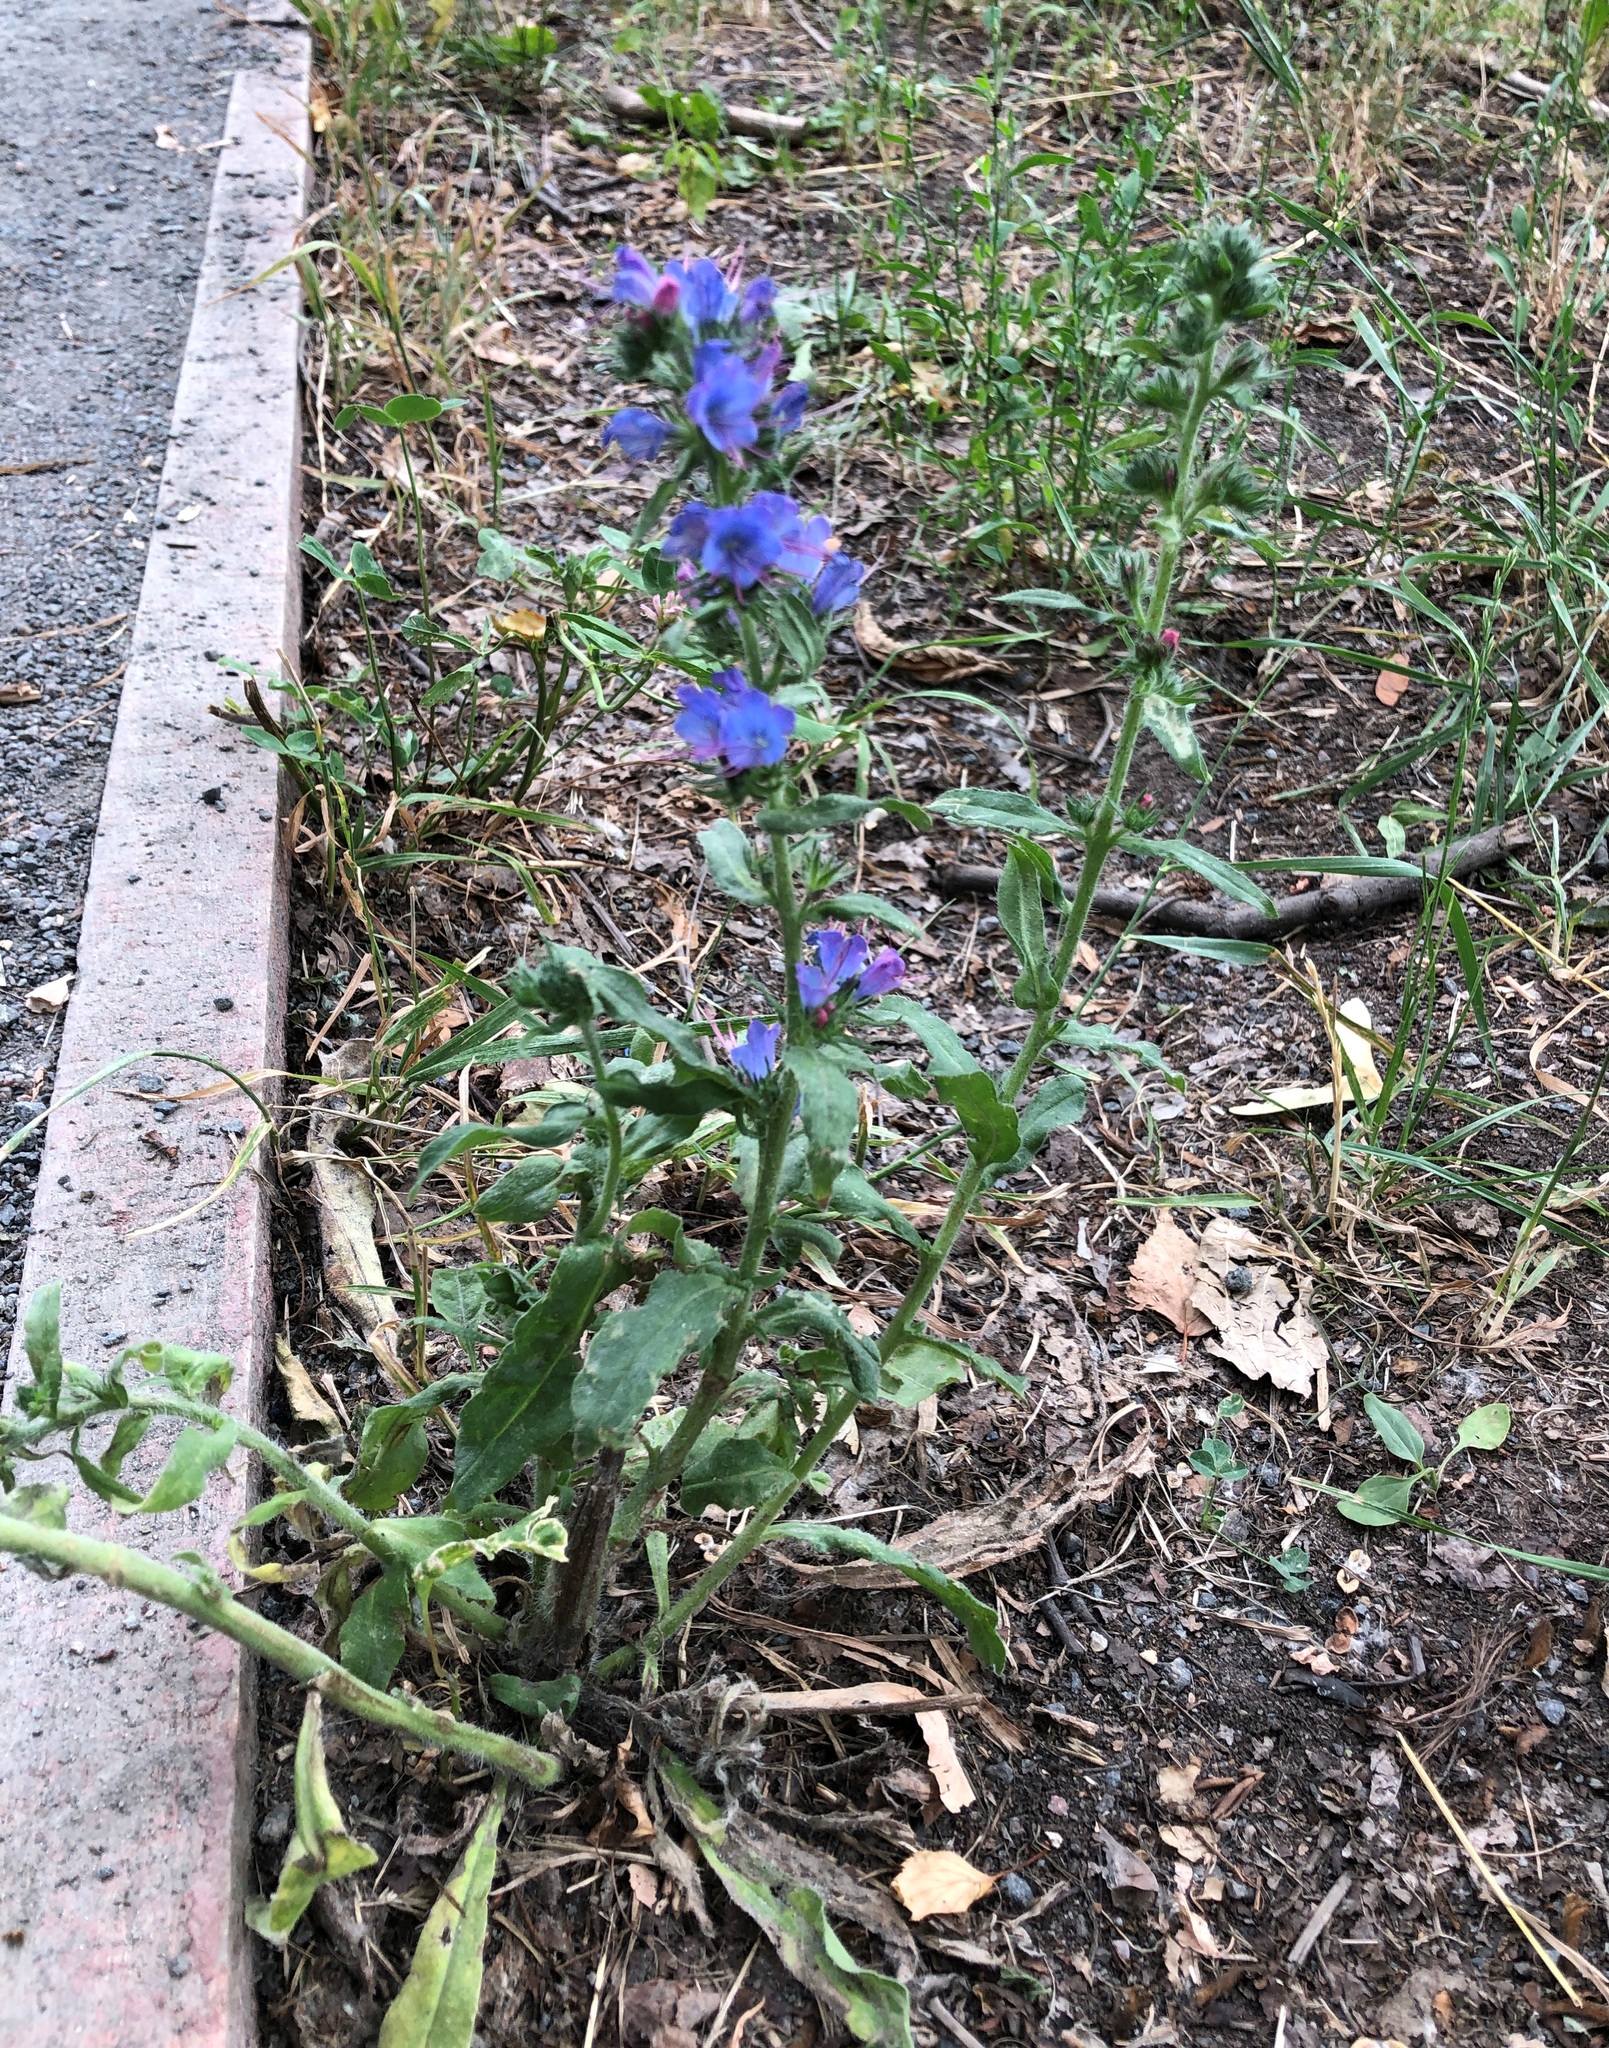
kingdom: Plantae
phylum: Tracheophyta
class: Magnoliopsida
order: Boraginales
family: Boraginaceae
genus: Echium
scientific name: Echium vulgare
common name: Common viper's bugloss
